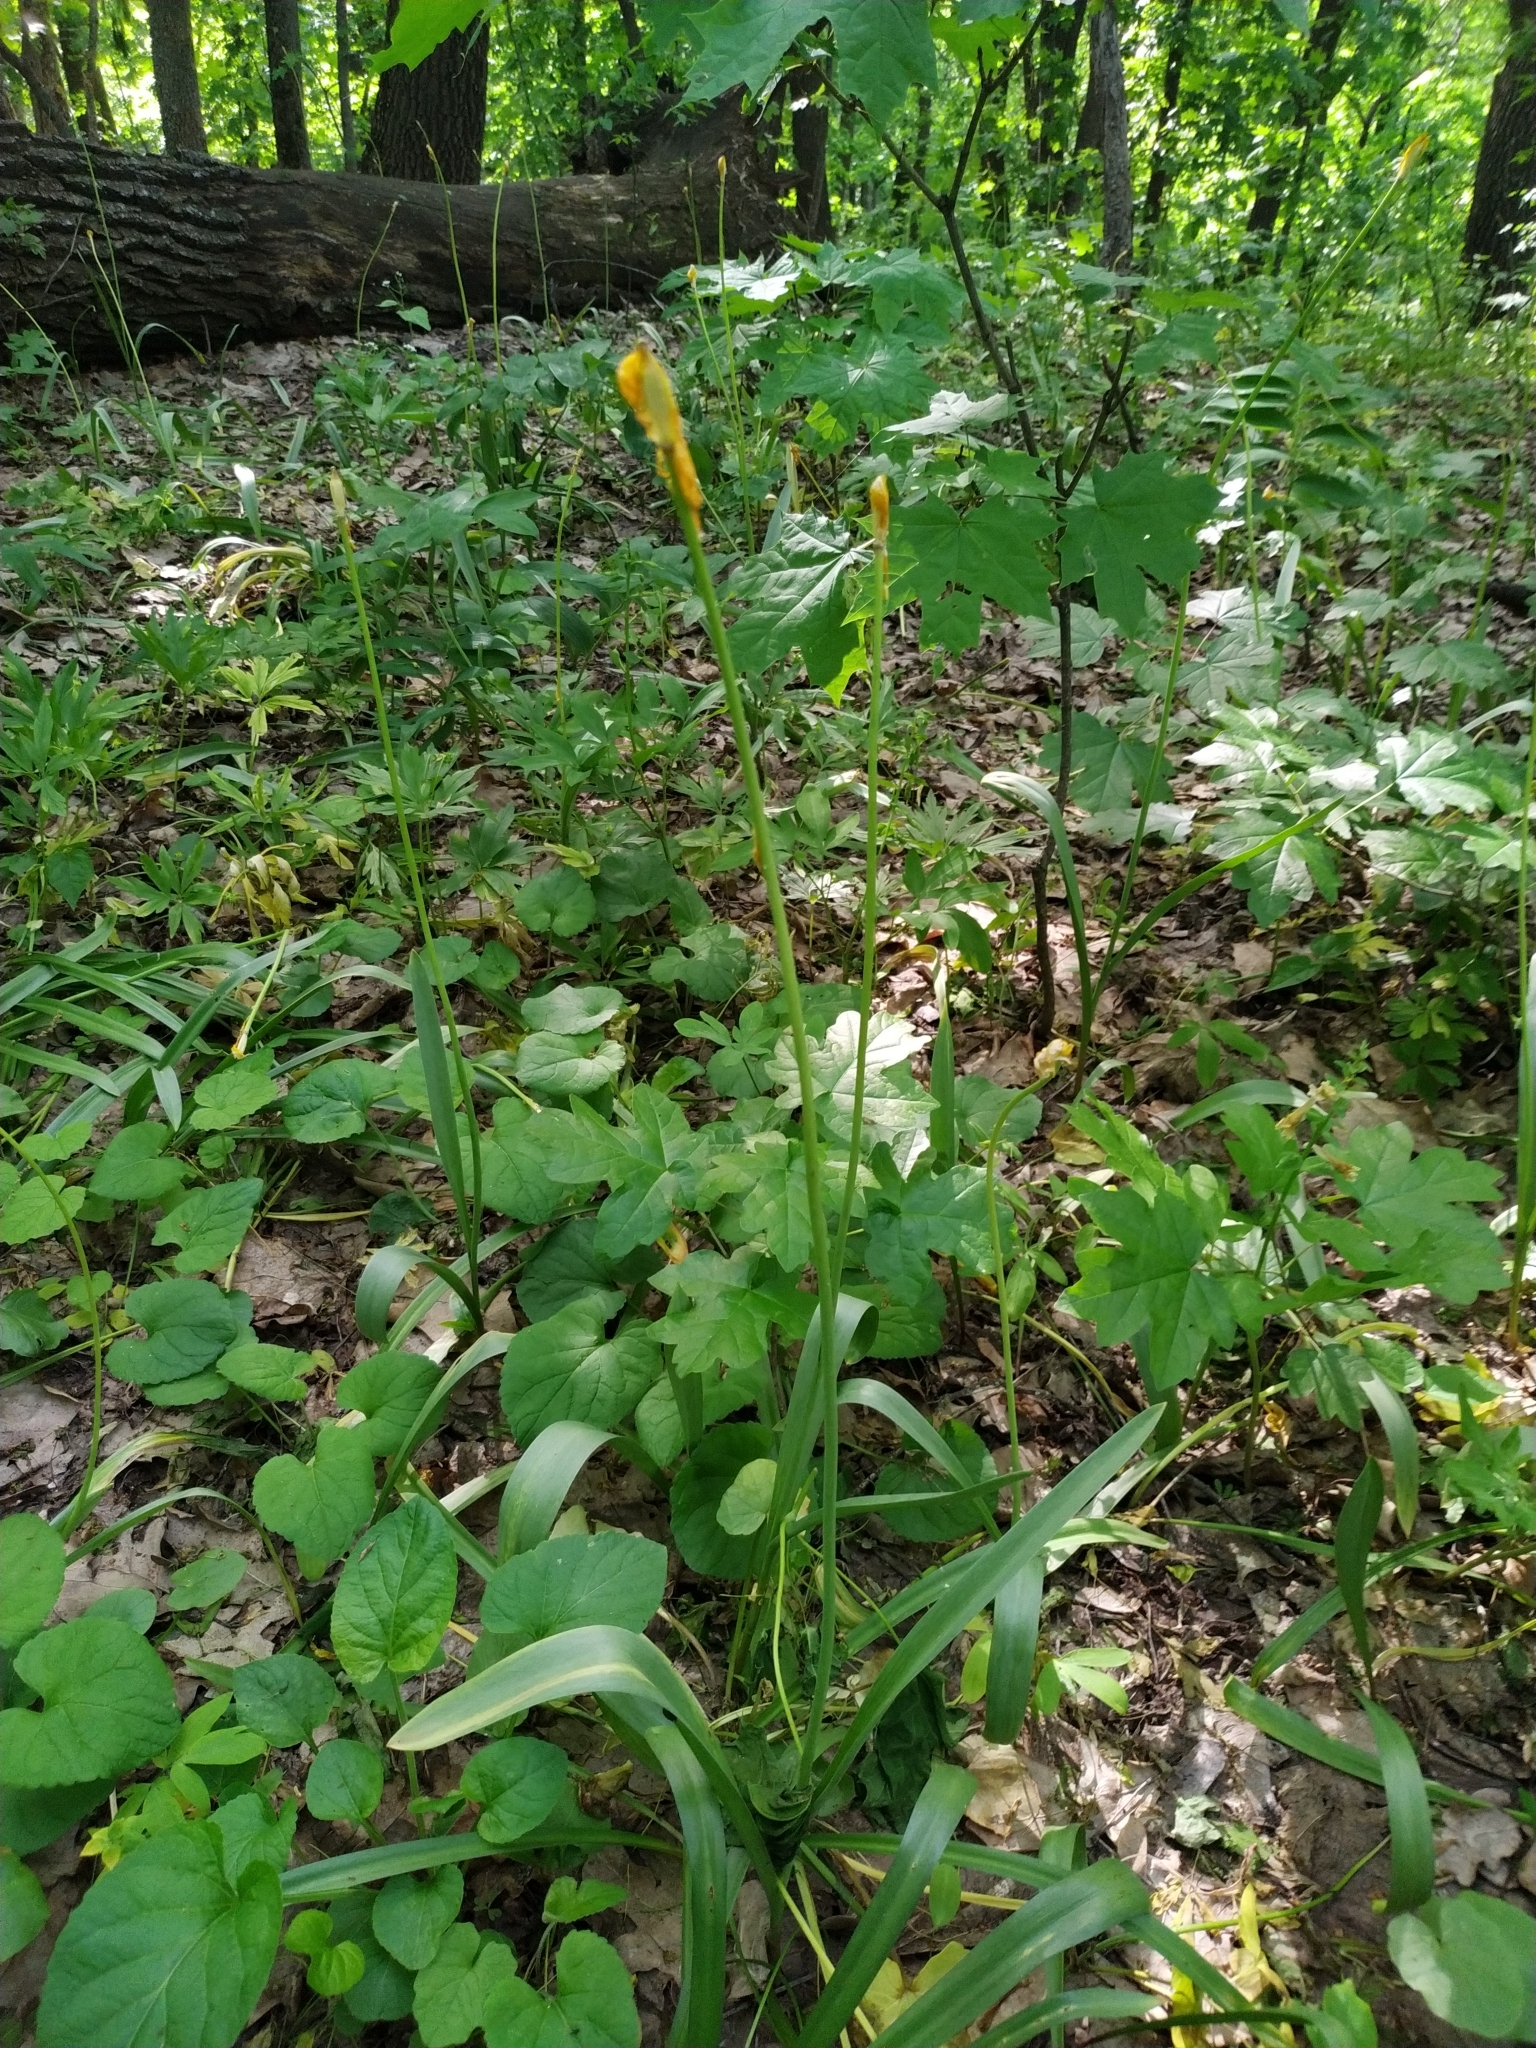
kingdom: Plantae
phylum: Tracheophyta
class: Liliopsida
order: Liliales
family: Liliaceae
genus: Tulipa
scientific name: Tulipa sylvestris
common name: Wild tulip
